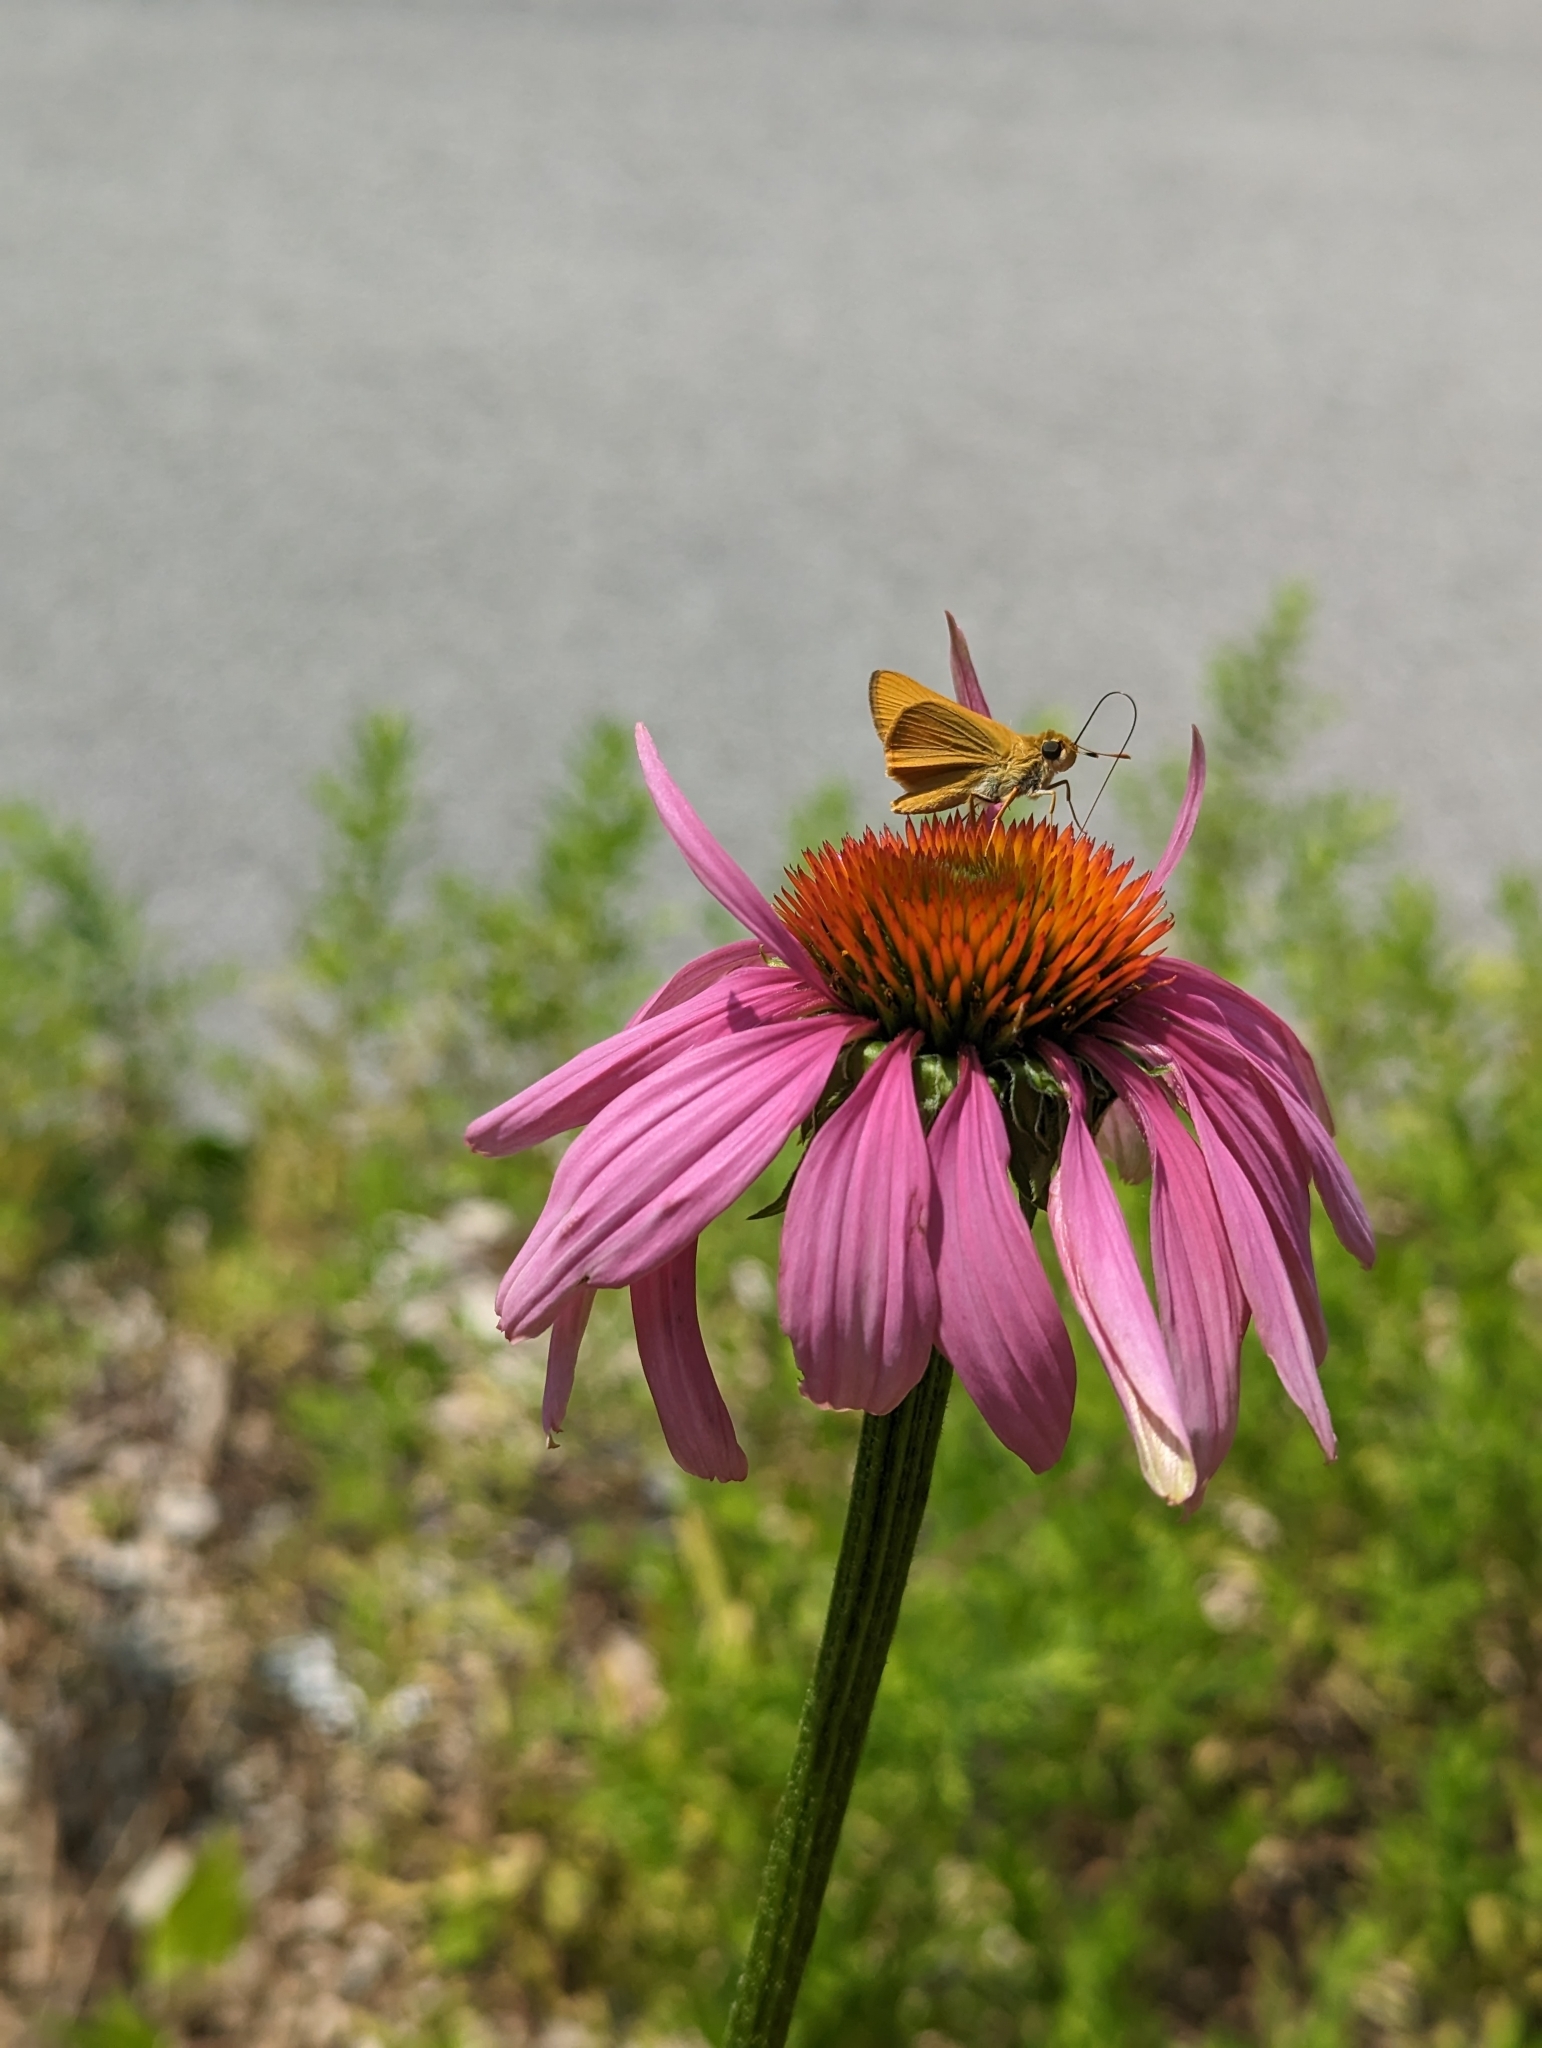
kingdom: Animalia
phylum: Arthropoda
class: Insecta
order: Lepidoptera
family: Hesperiidae
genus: Atrytone
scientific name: Atrytone delaware
